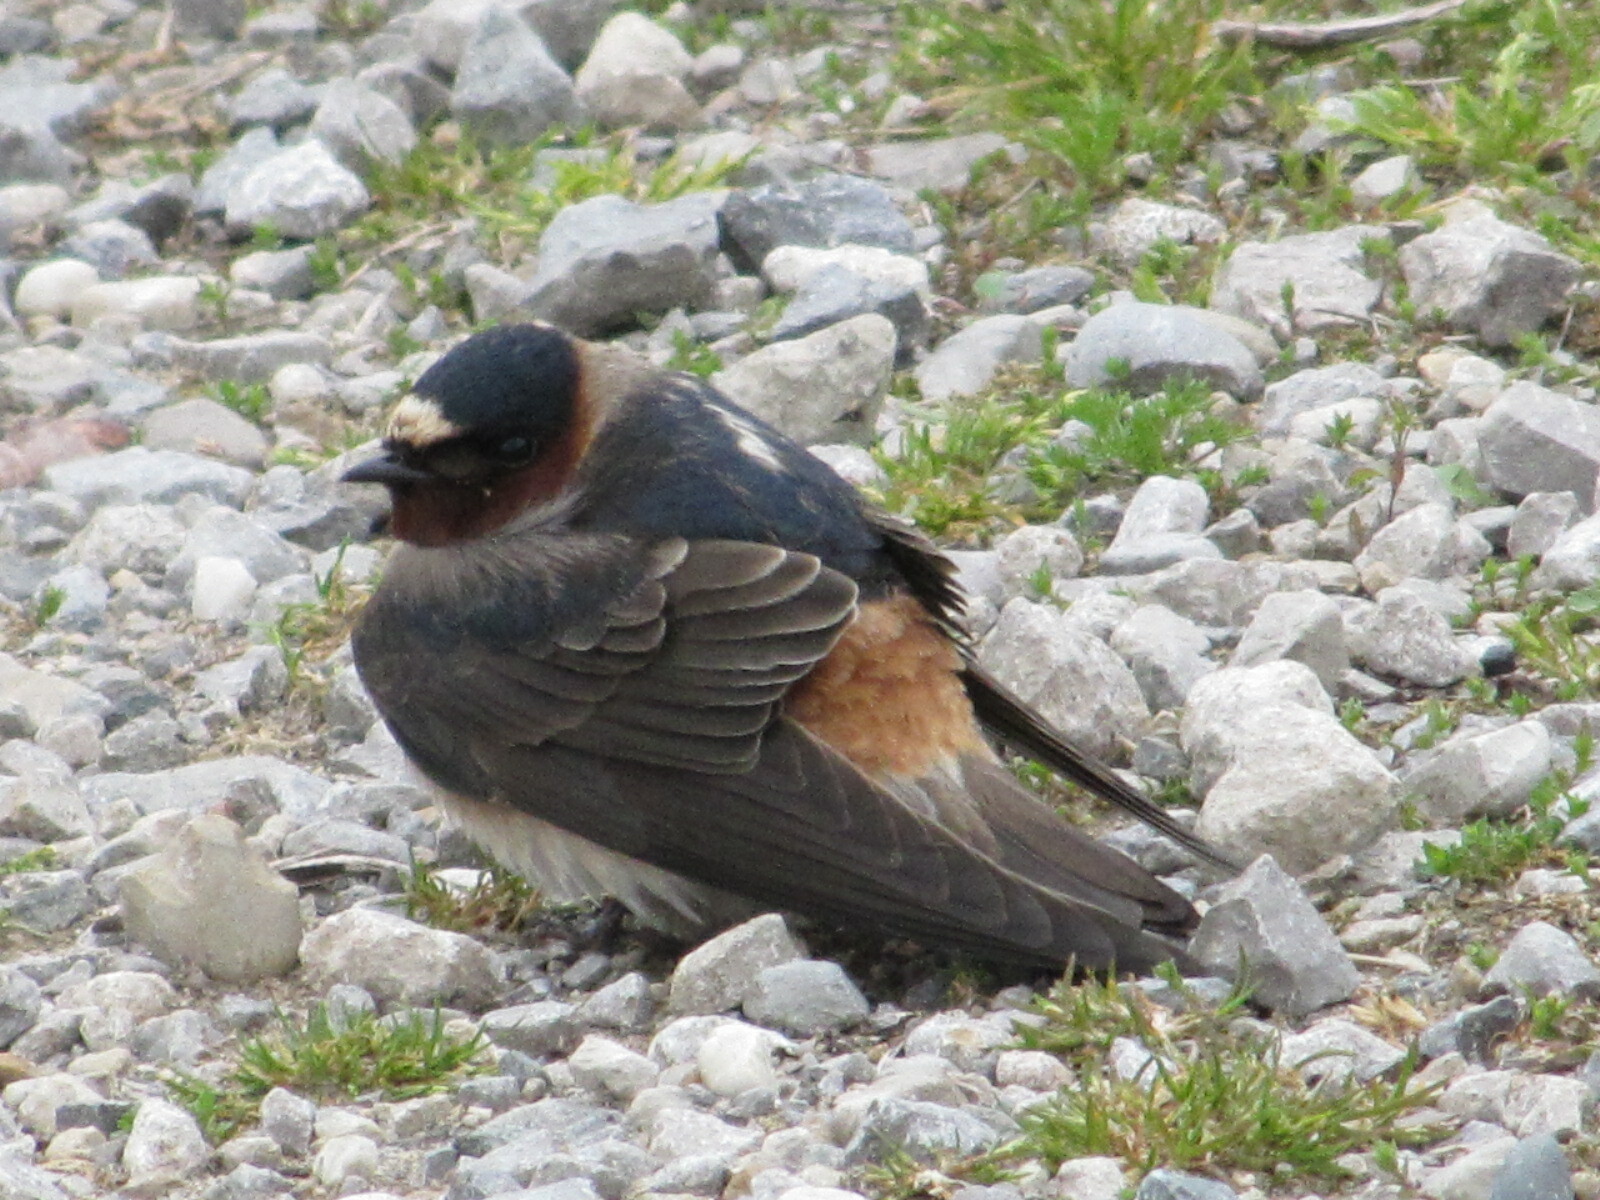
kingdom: Animalia
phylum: Chordata
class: Aves
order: Passeriformes
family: Hirundinidae
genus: Petrochelidon
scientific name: Petrochelidon pyrrhonota
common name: American cliff swallow
